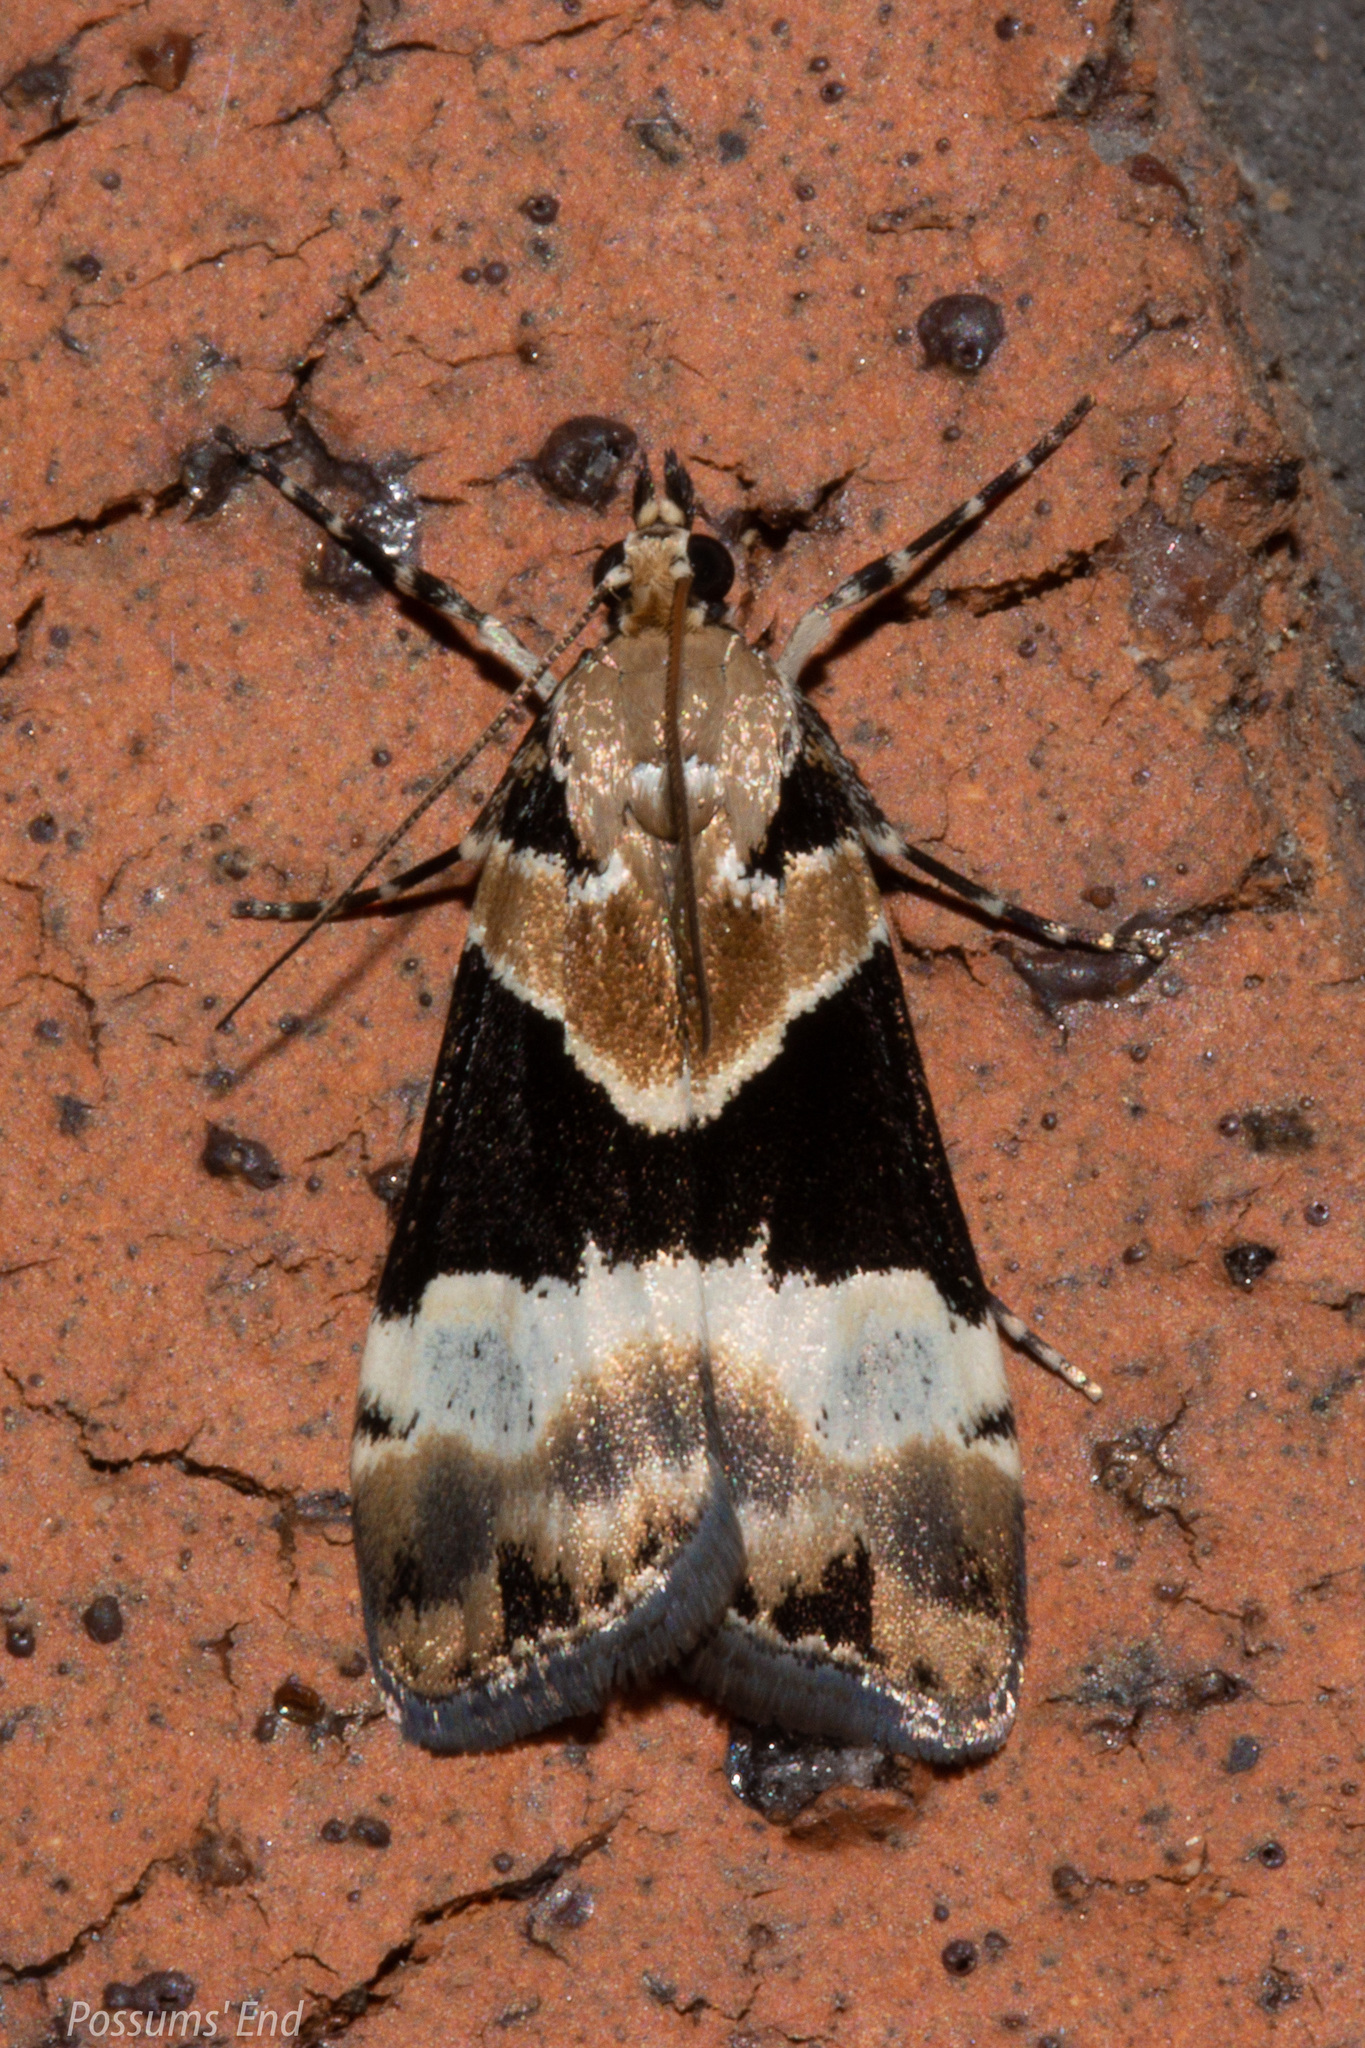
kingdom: Animalia
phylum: Arthropoda
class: Insecta
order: Lepidoptera
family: Crambidae
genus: Eudonia
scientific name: Eudonia aspidota
